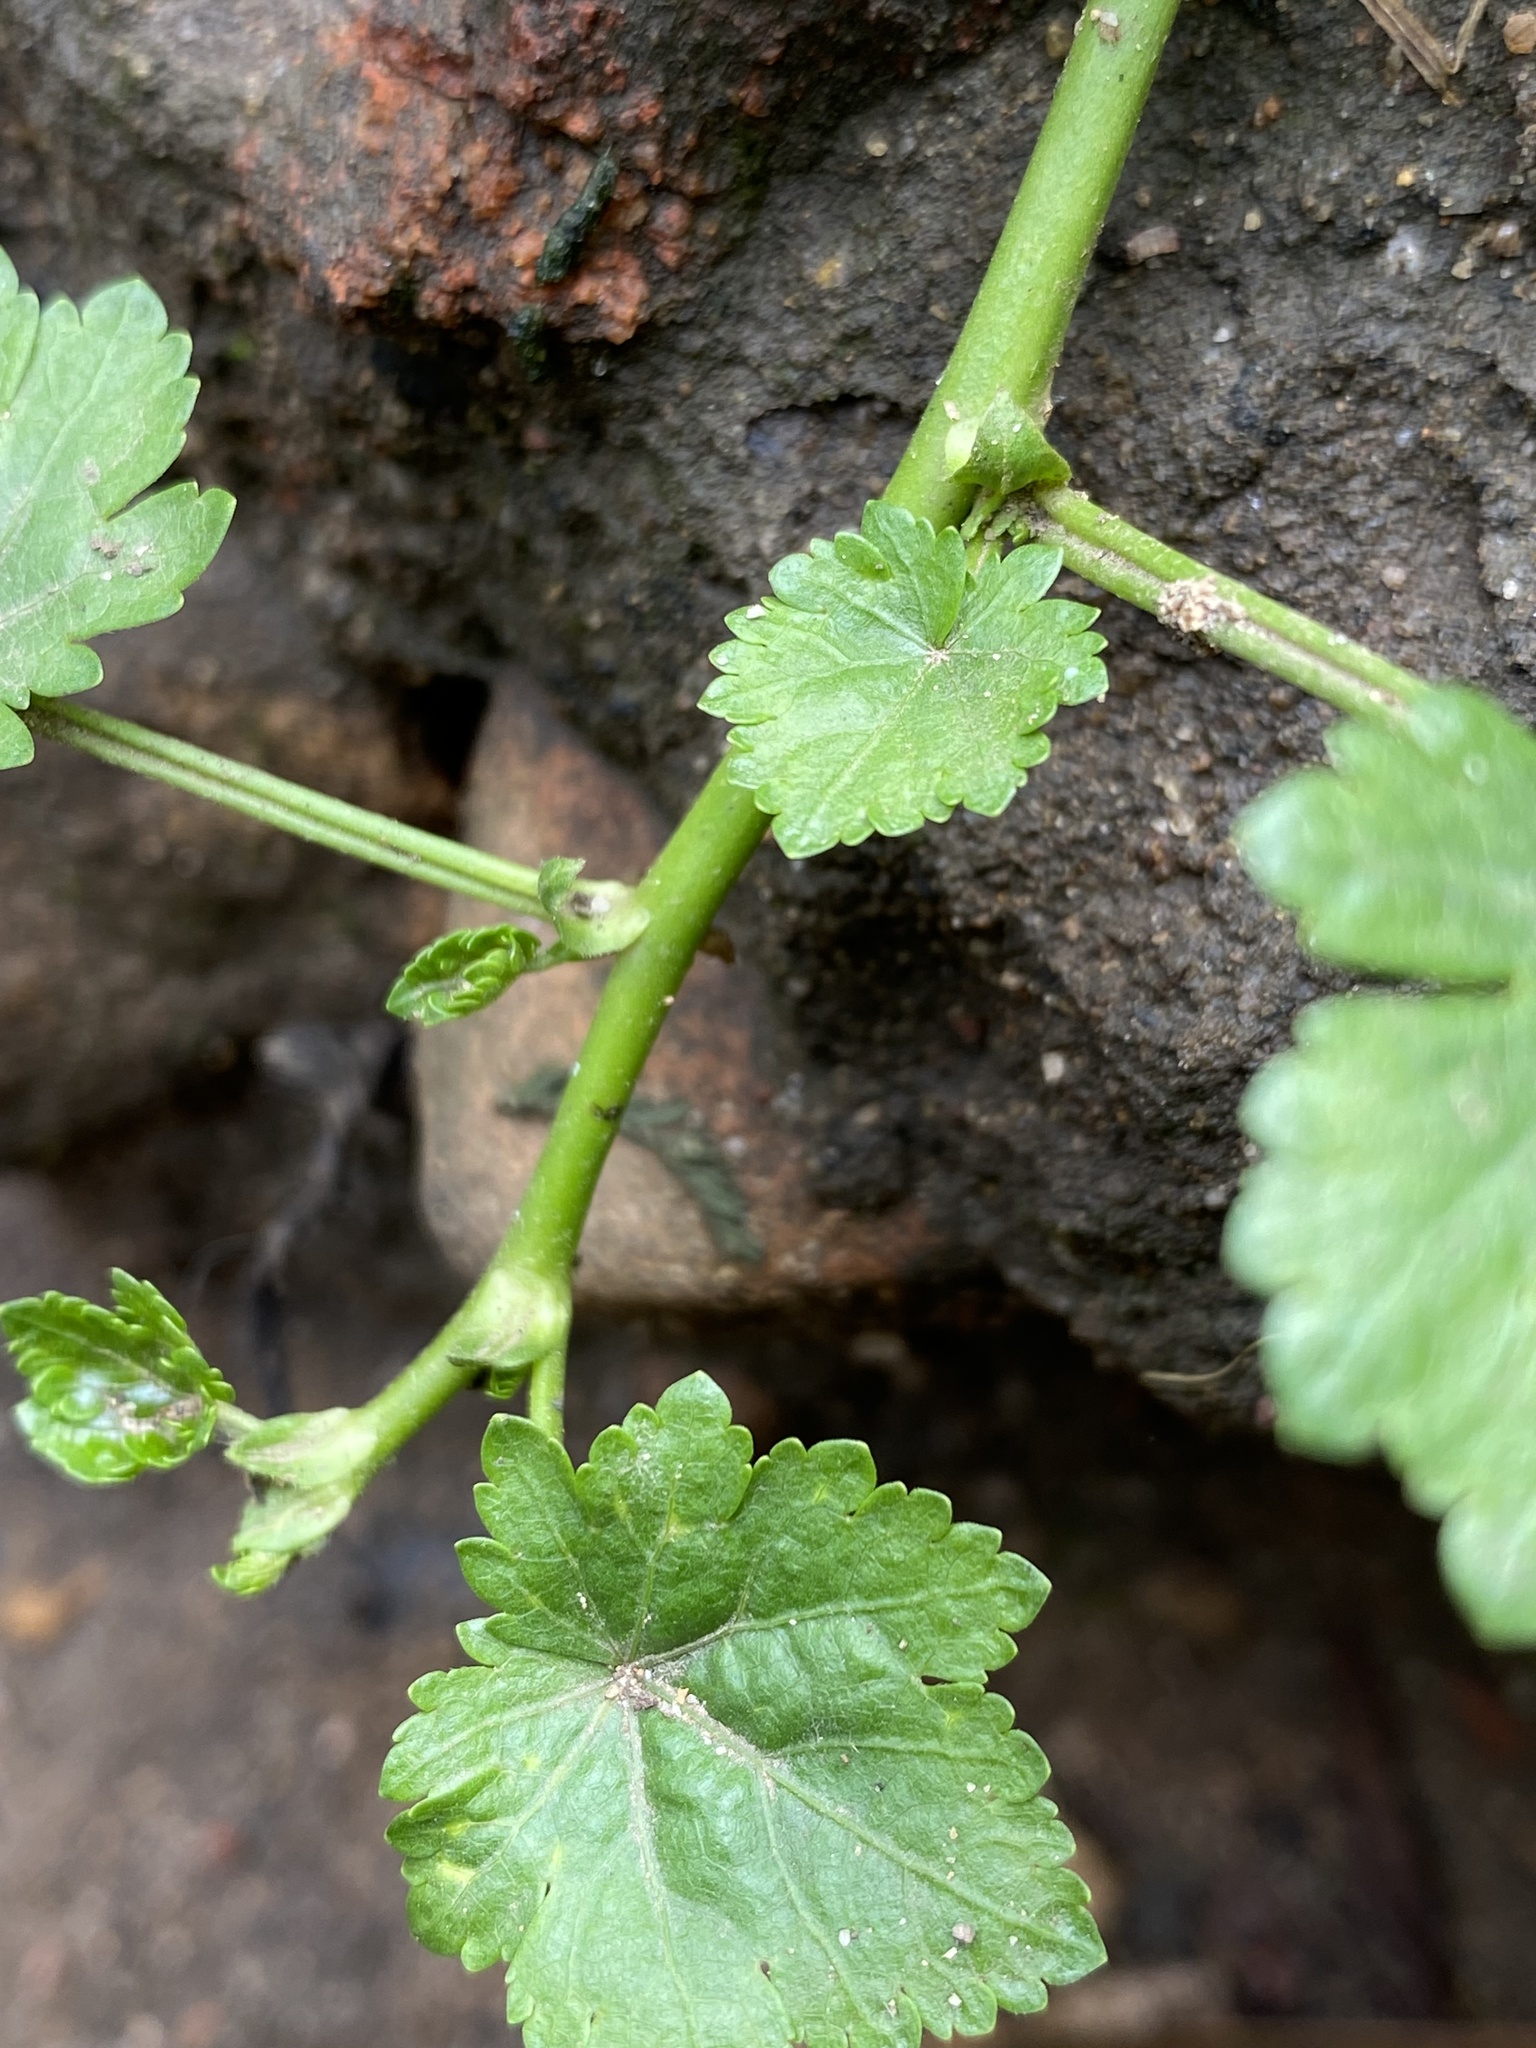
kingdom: Plantae
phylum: Tracheophyta
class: Magnoliopsida
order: Malvales
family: Malvaceae
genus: Modiola
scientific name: Modiola caroliniana
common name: Carolina bristlemallow
